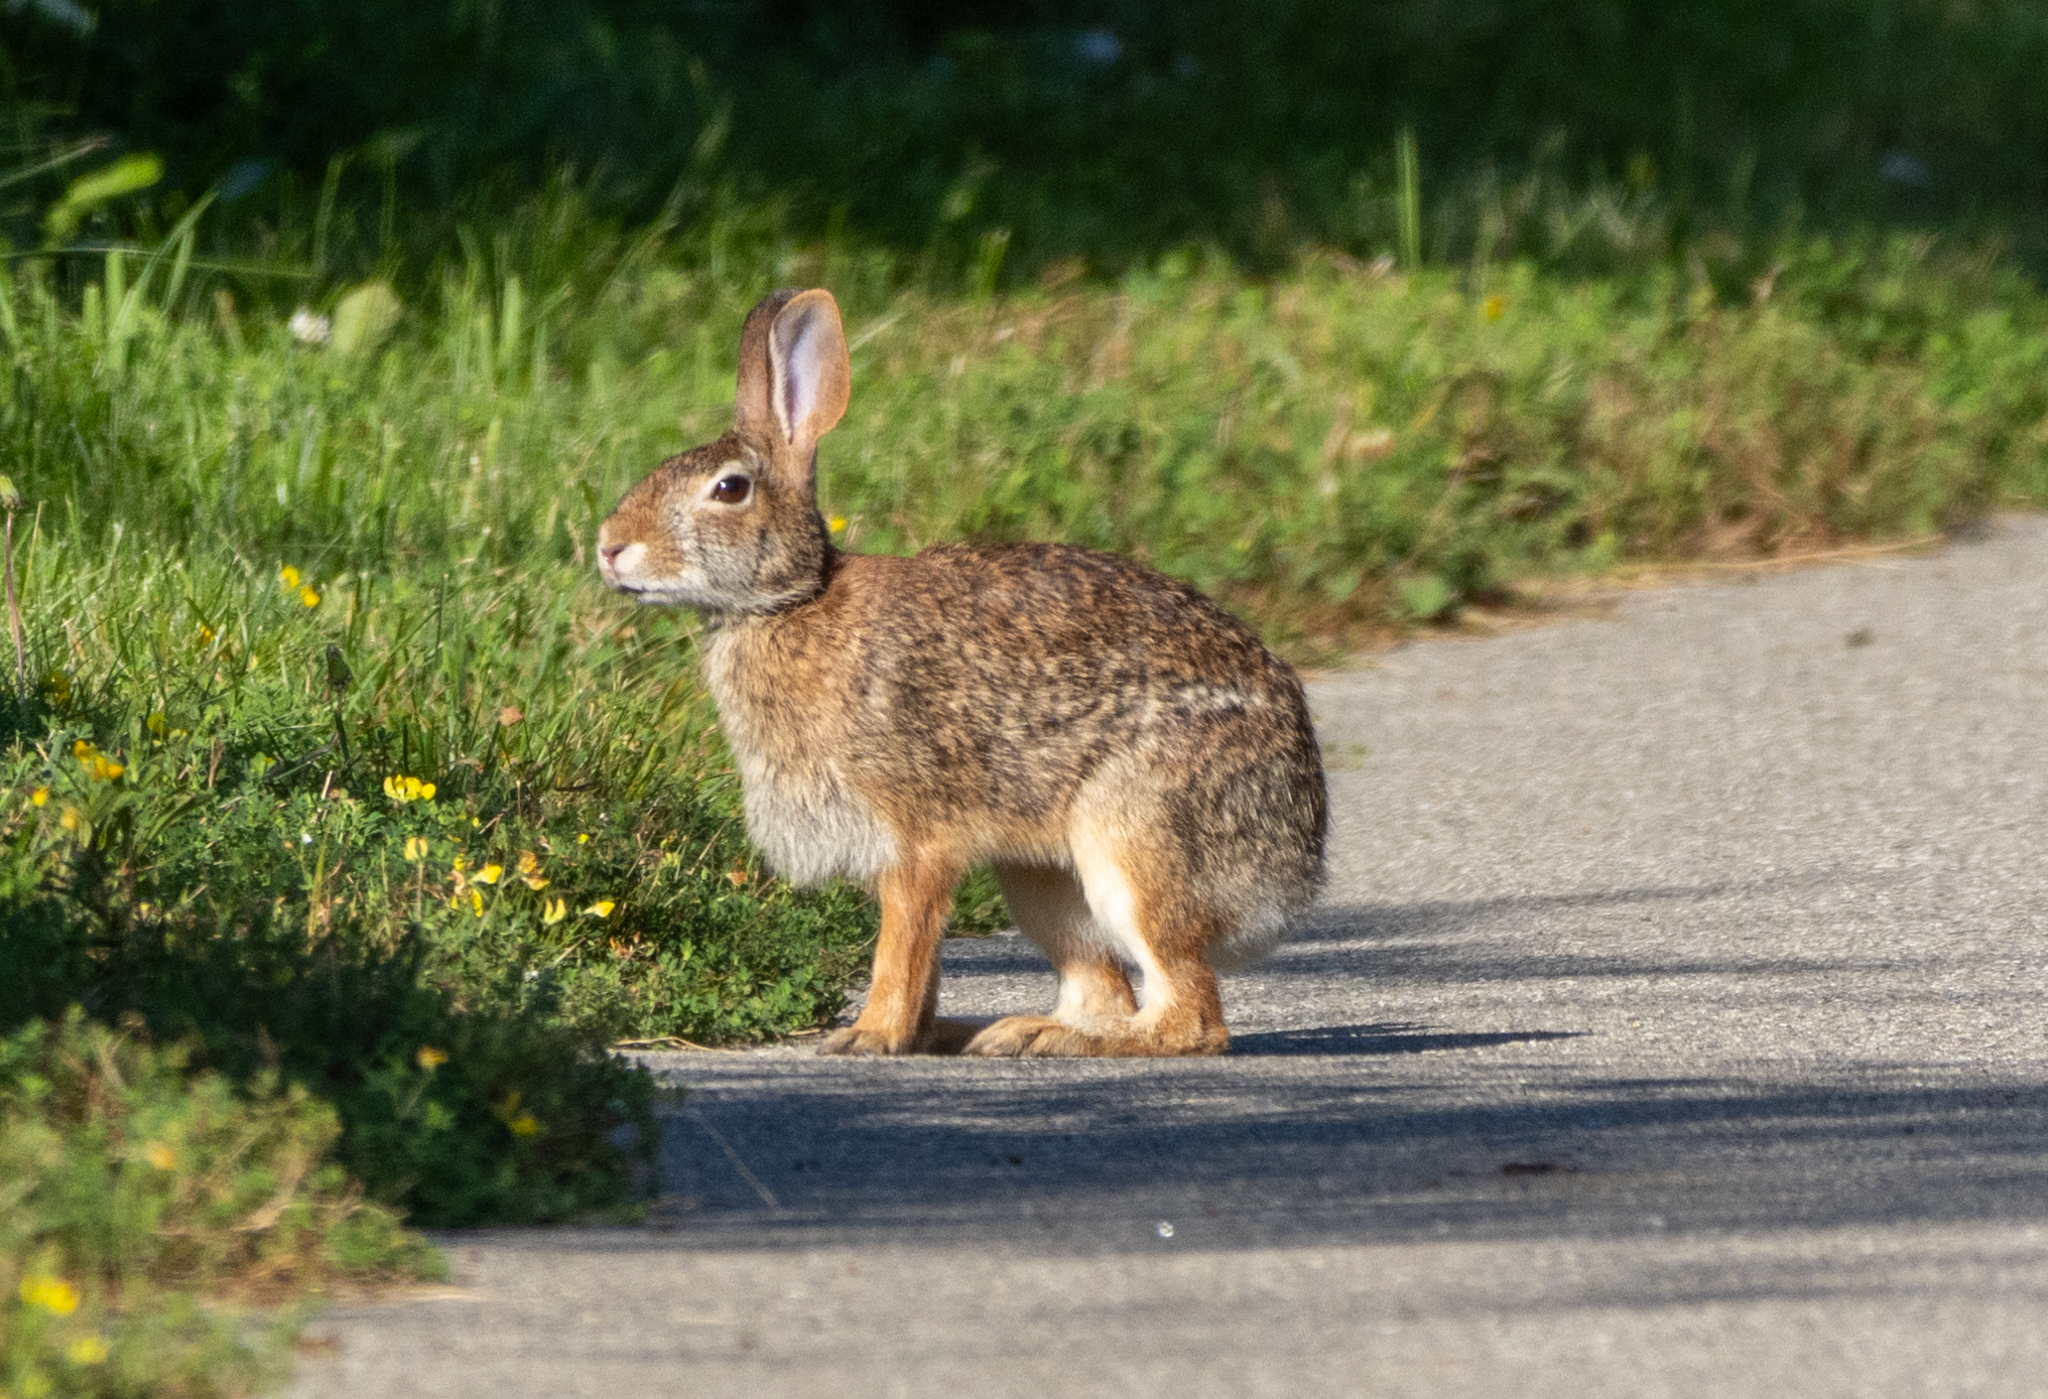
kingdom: Animalia
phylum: Chordata
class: Mammalia
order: Lagomorpha
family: Leporidae
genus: Sylvilagus
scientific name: Sylvilagus floridanus
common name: Eastern cottontail
